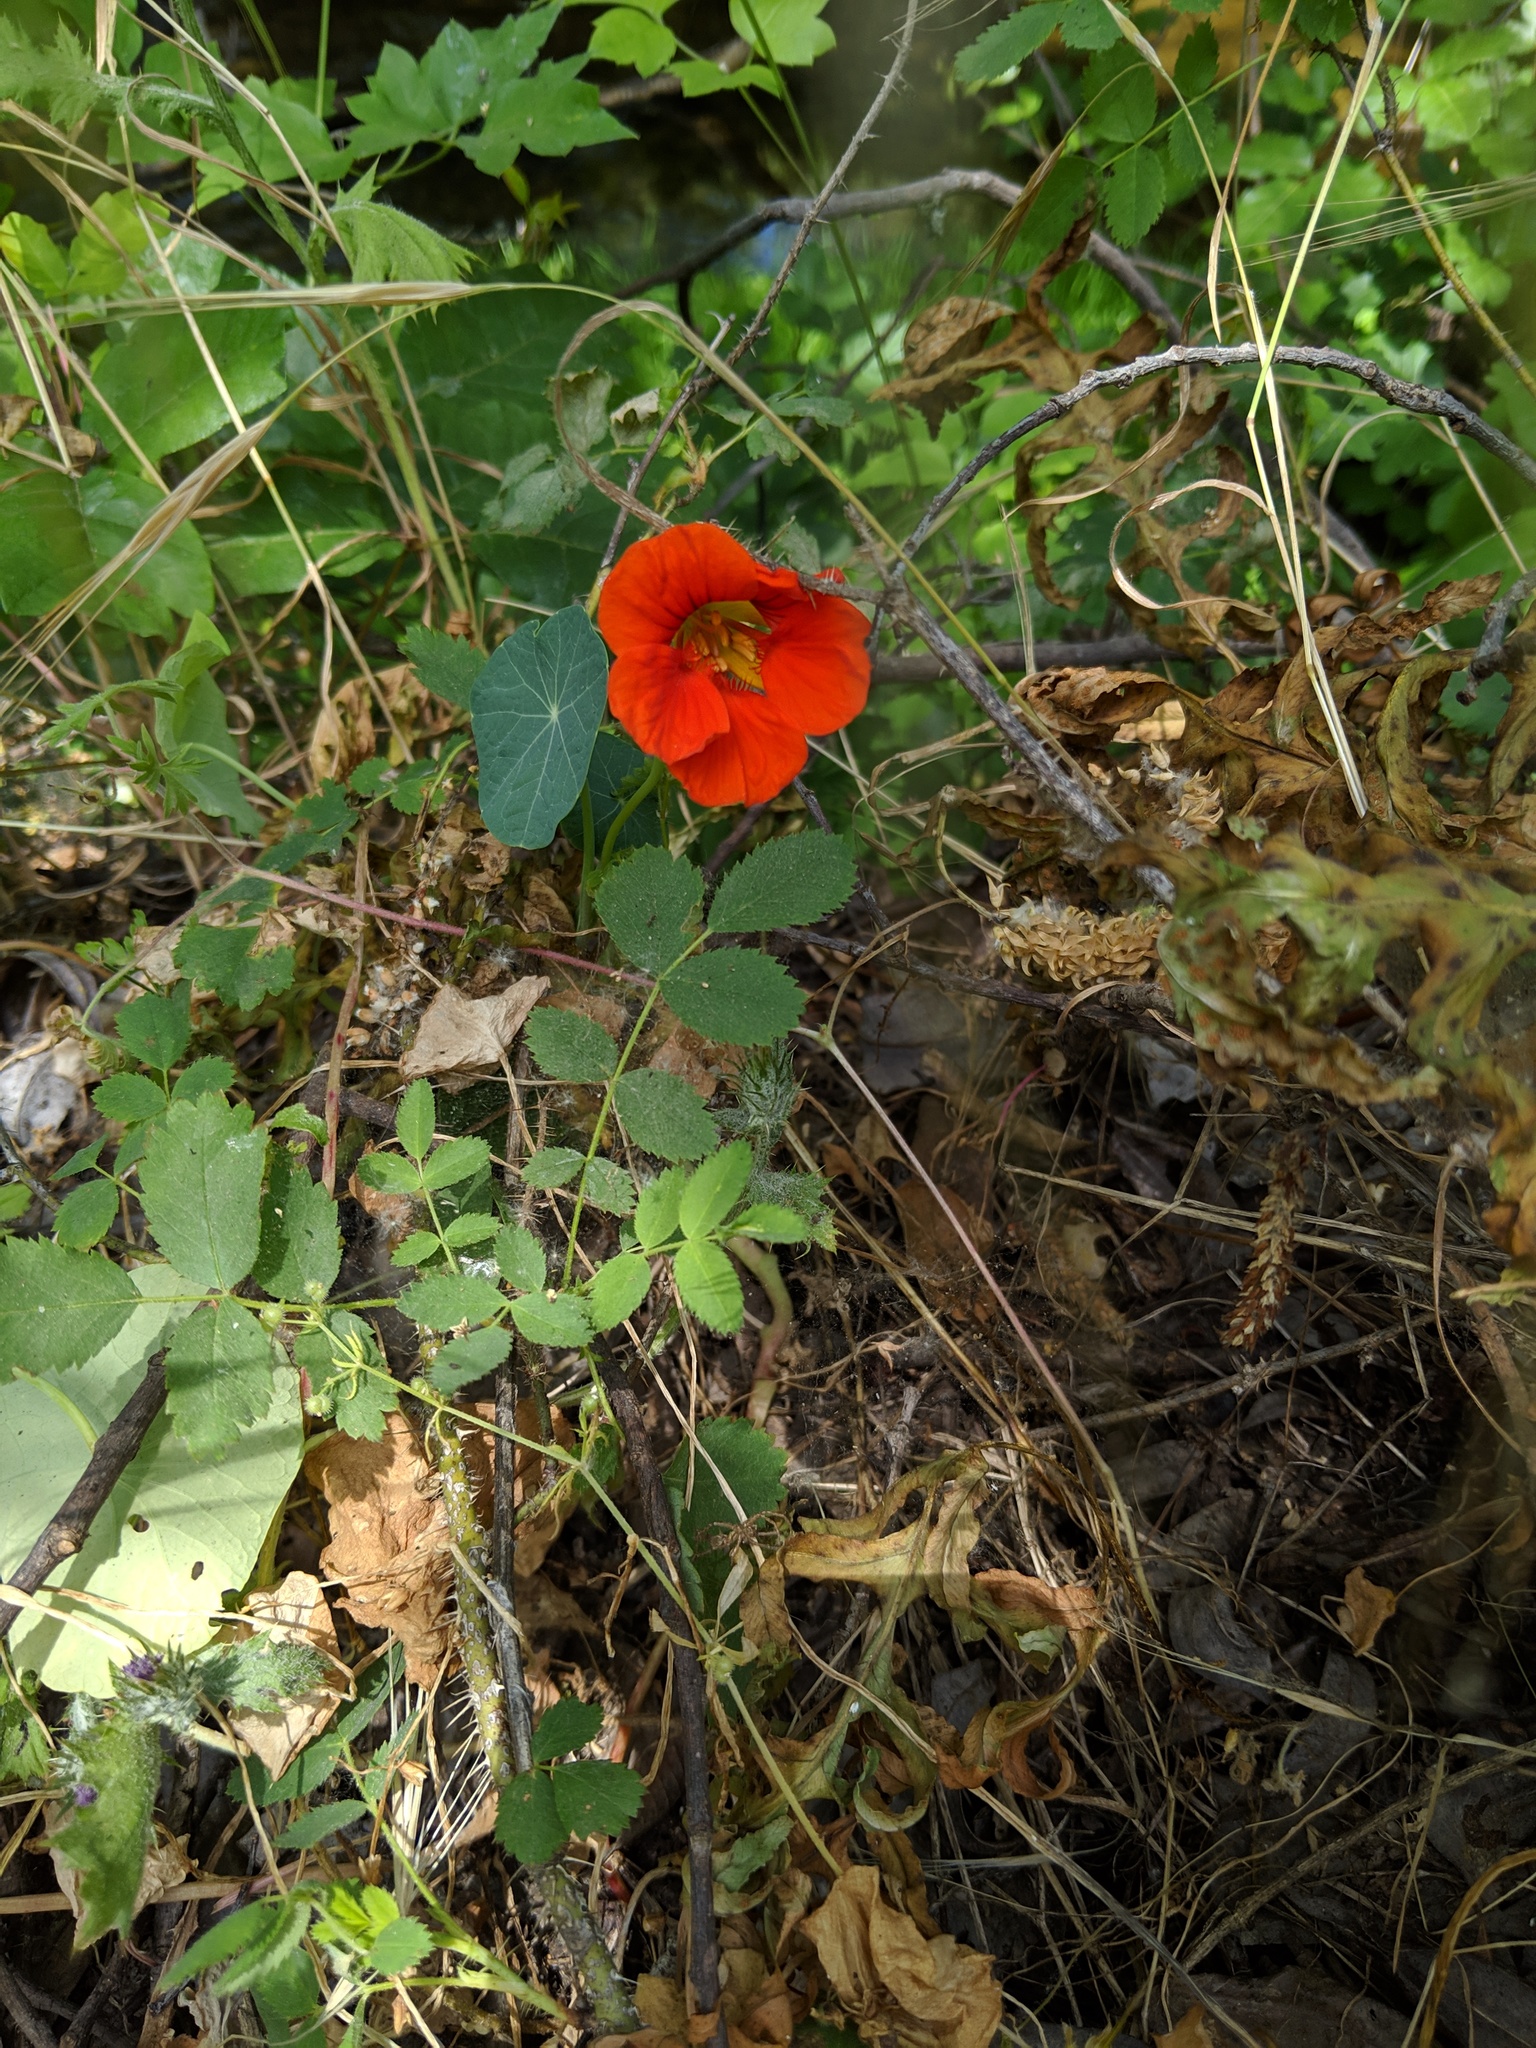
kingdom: Plantae
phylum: Tracheophyta
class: Magnoliopsida
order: Brassicales
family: Tropaeolaceae
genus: Tropaeolum
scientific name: Tropaeolum majus
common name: Nasturtium
